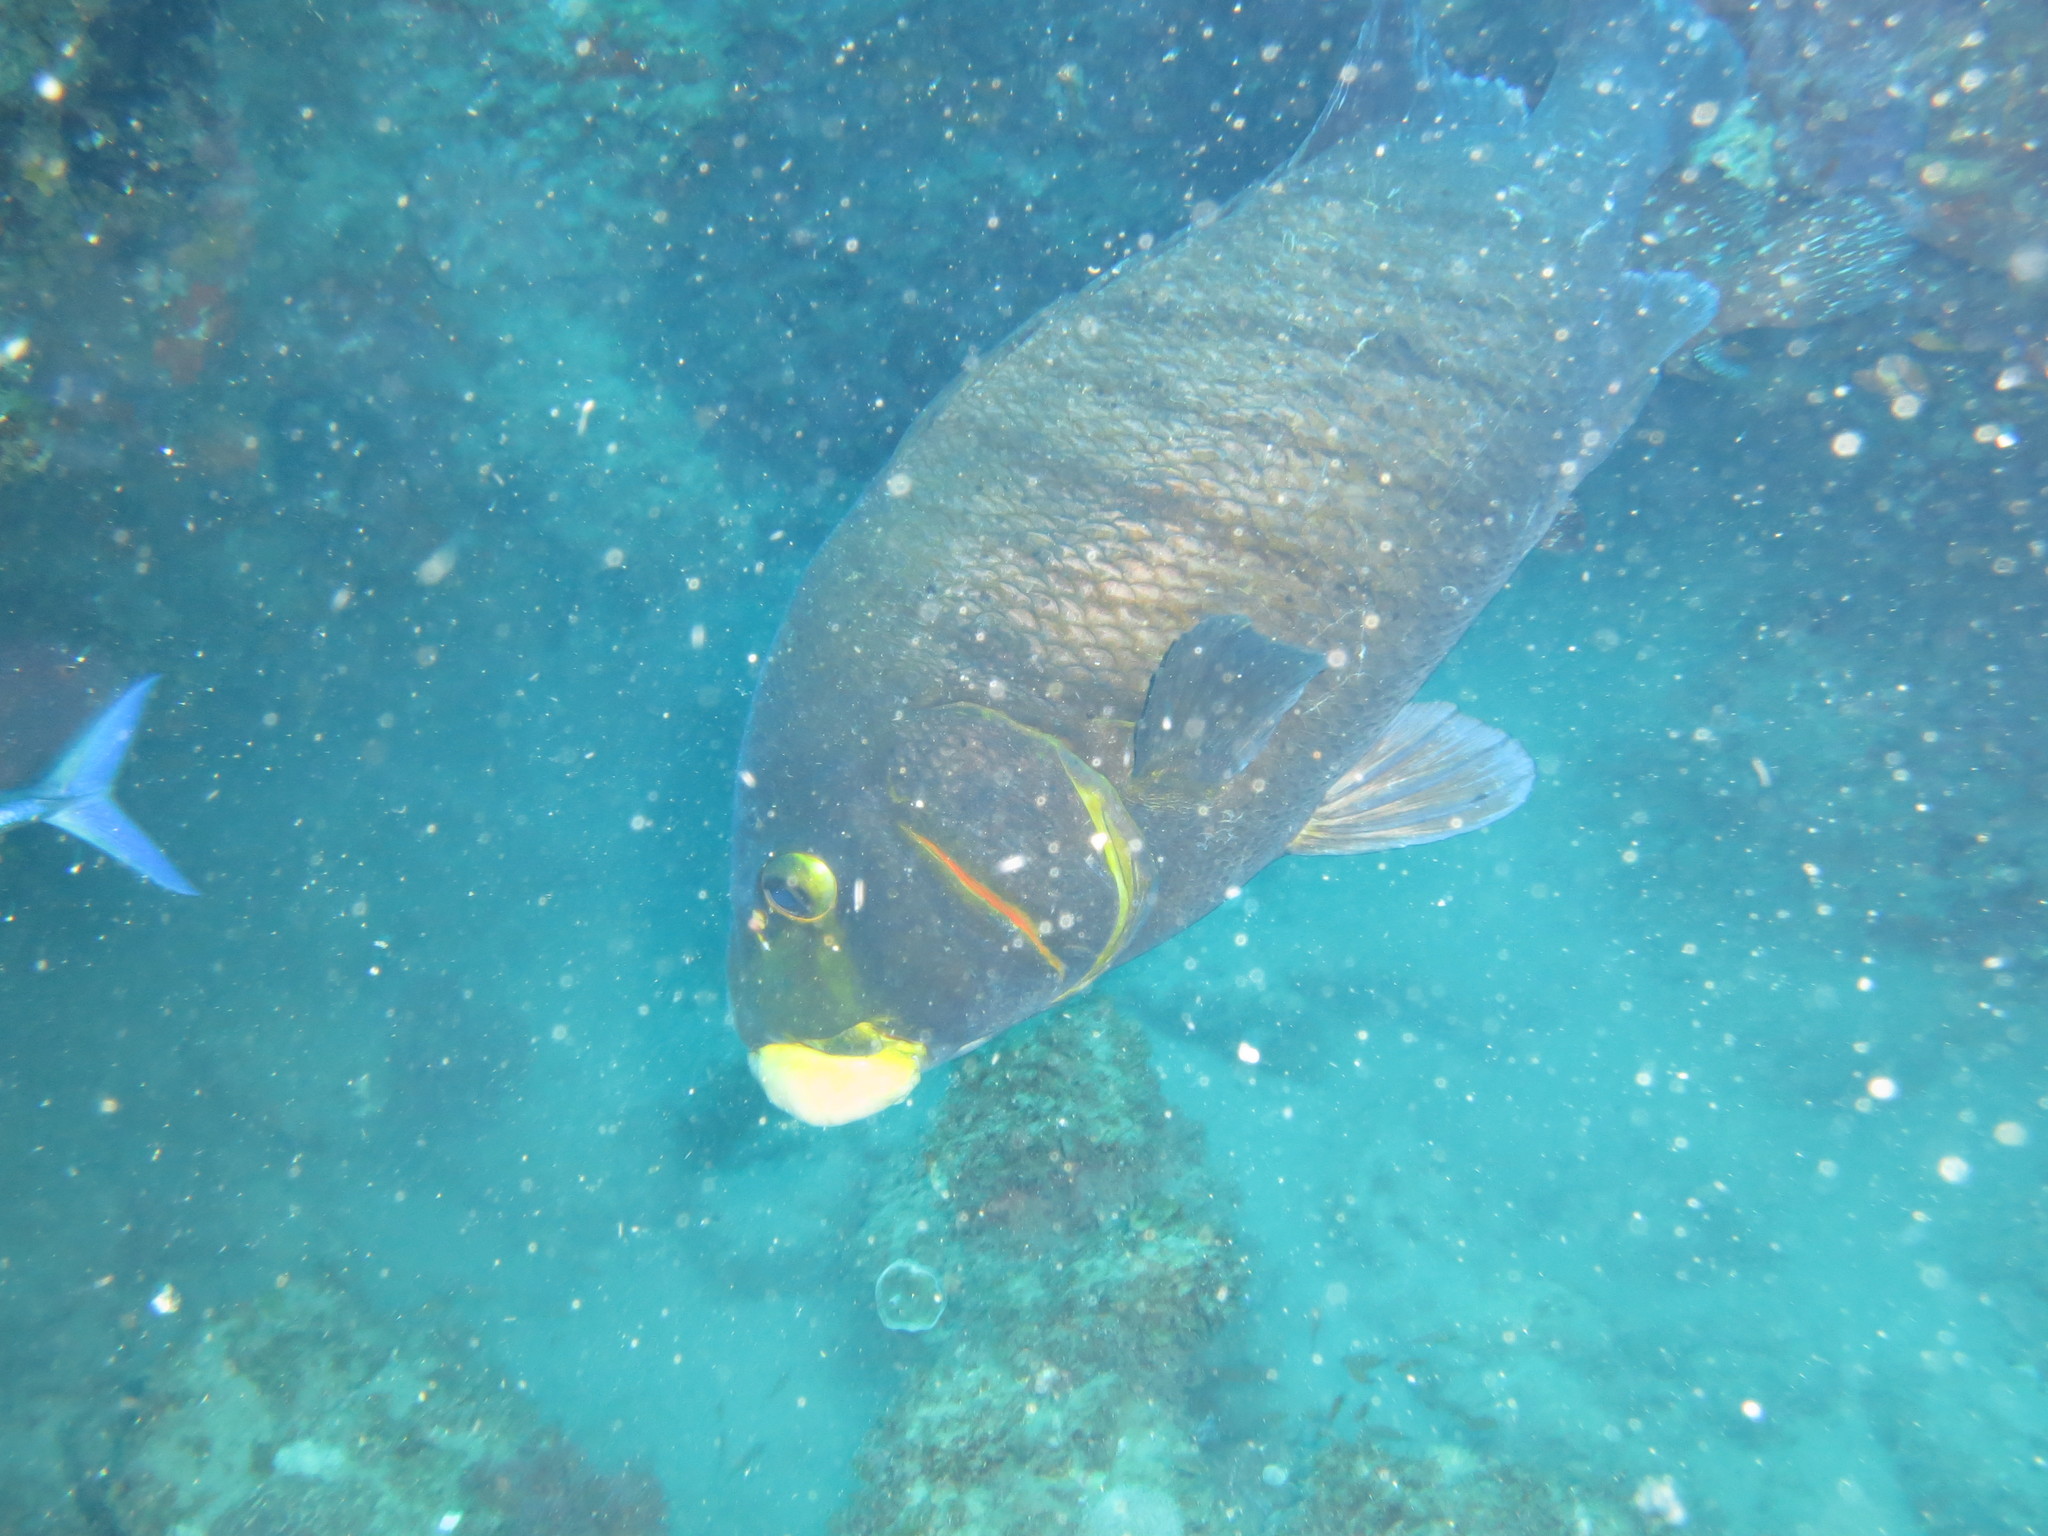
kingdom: Animalia
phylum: Chordata
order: Perciformes
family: Haemulidae
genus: Plectorhinchus
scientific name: Plectorhinchus plagiodesmus
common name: Barred rubberlip
